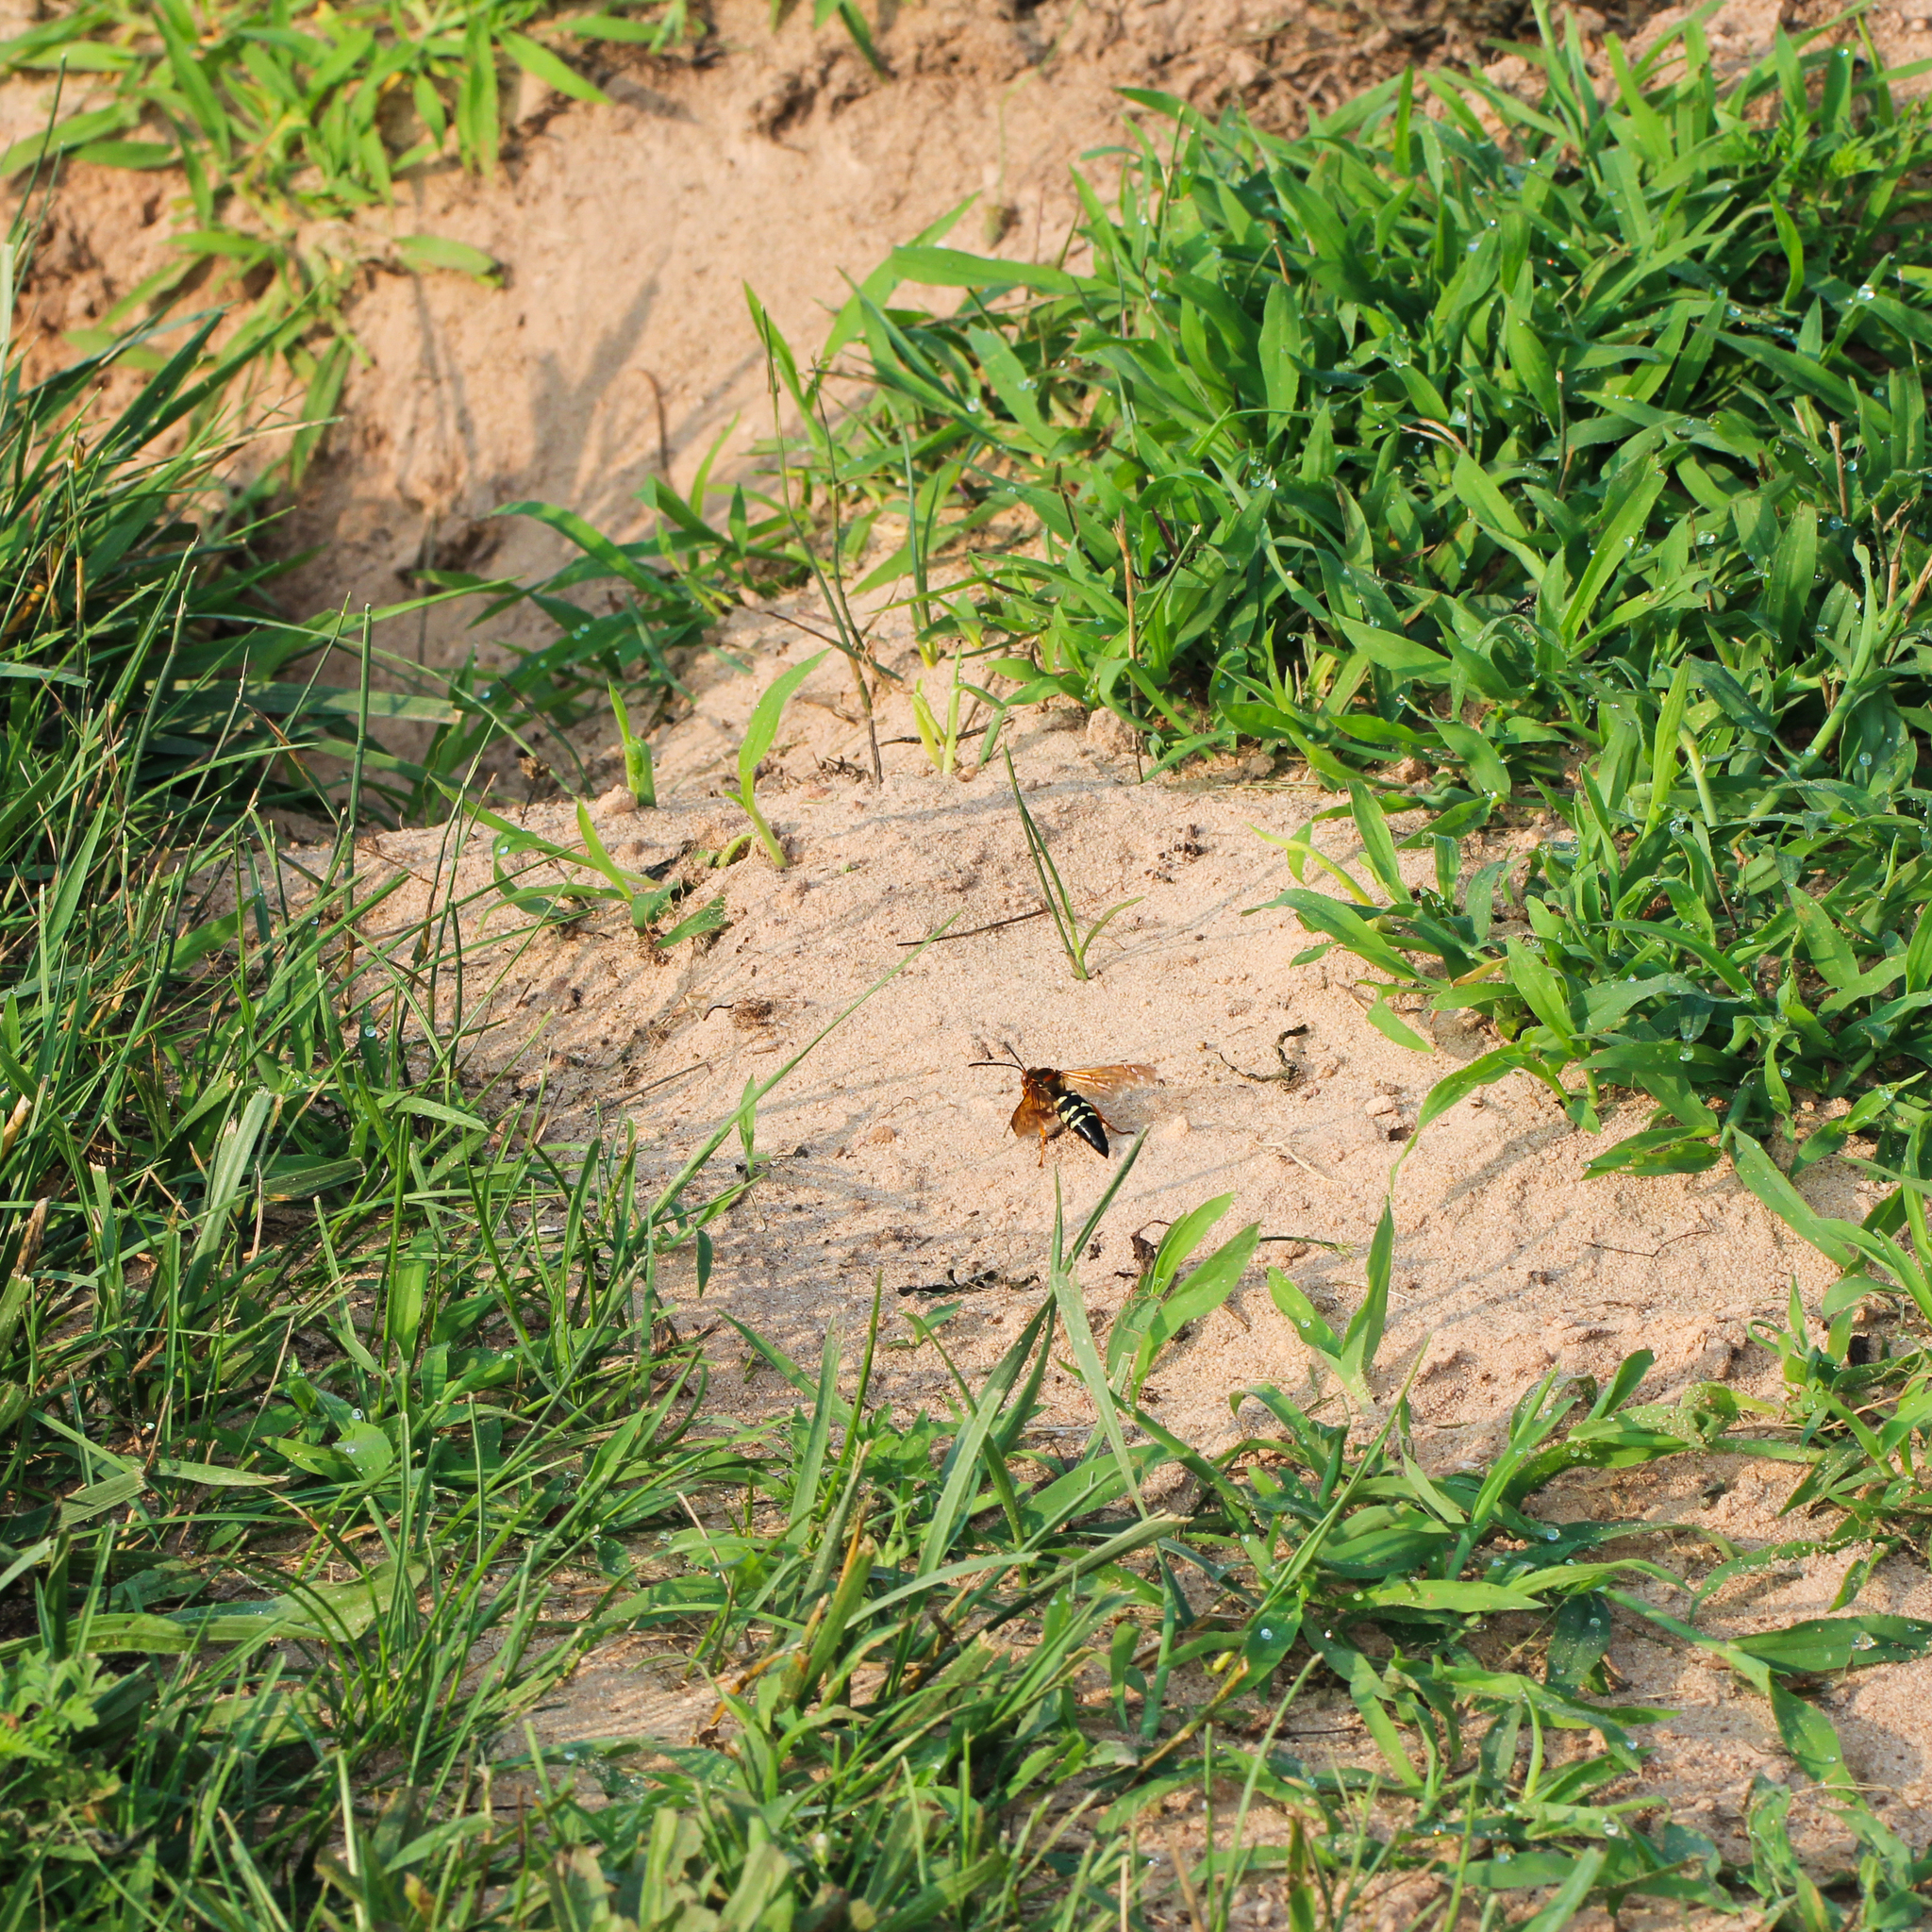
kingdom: Animalia
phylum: Arthropoda
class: Insecta
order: Hymenoptera
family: Crabronidae
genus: Sphecius
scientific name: Sphecius speciosus
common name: Cicada killer
